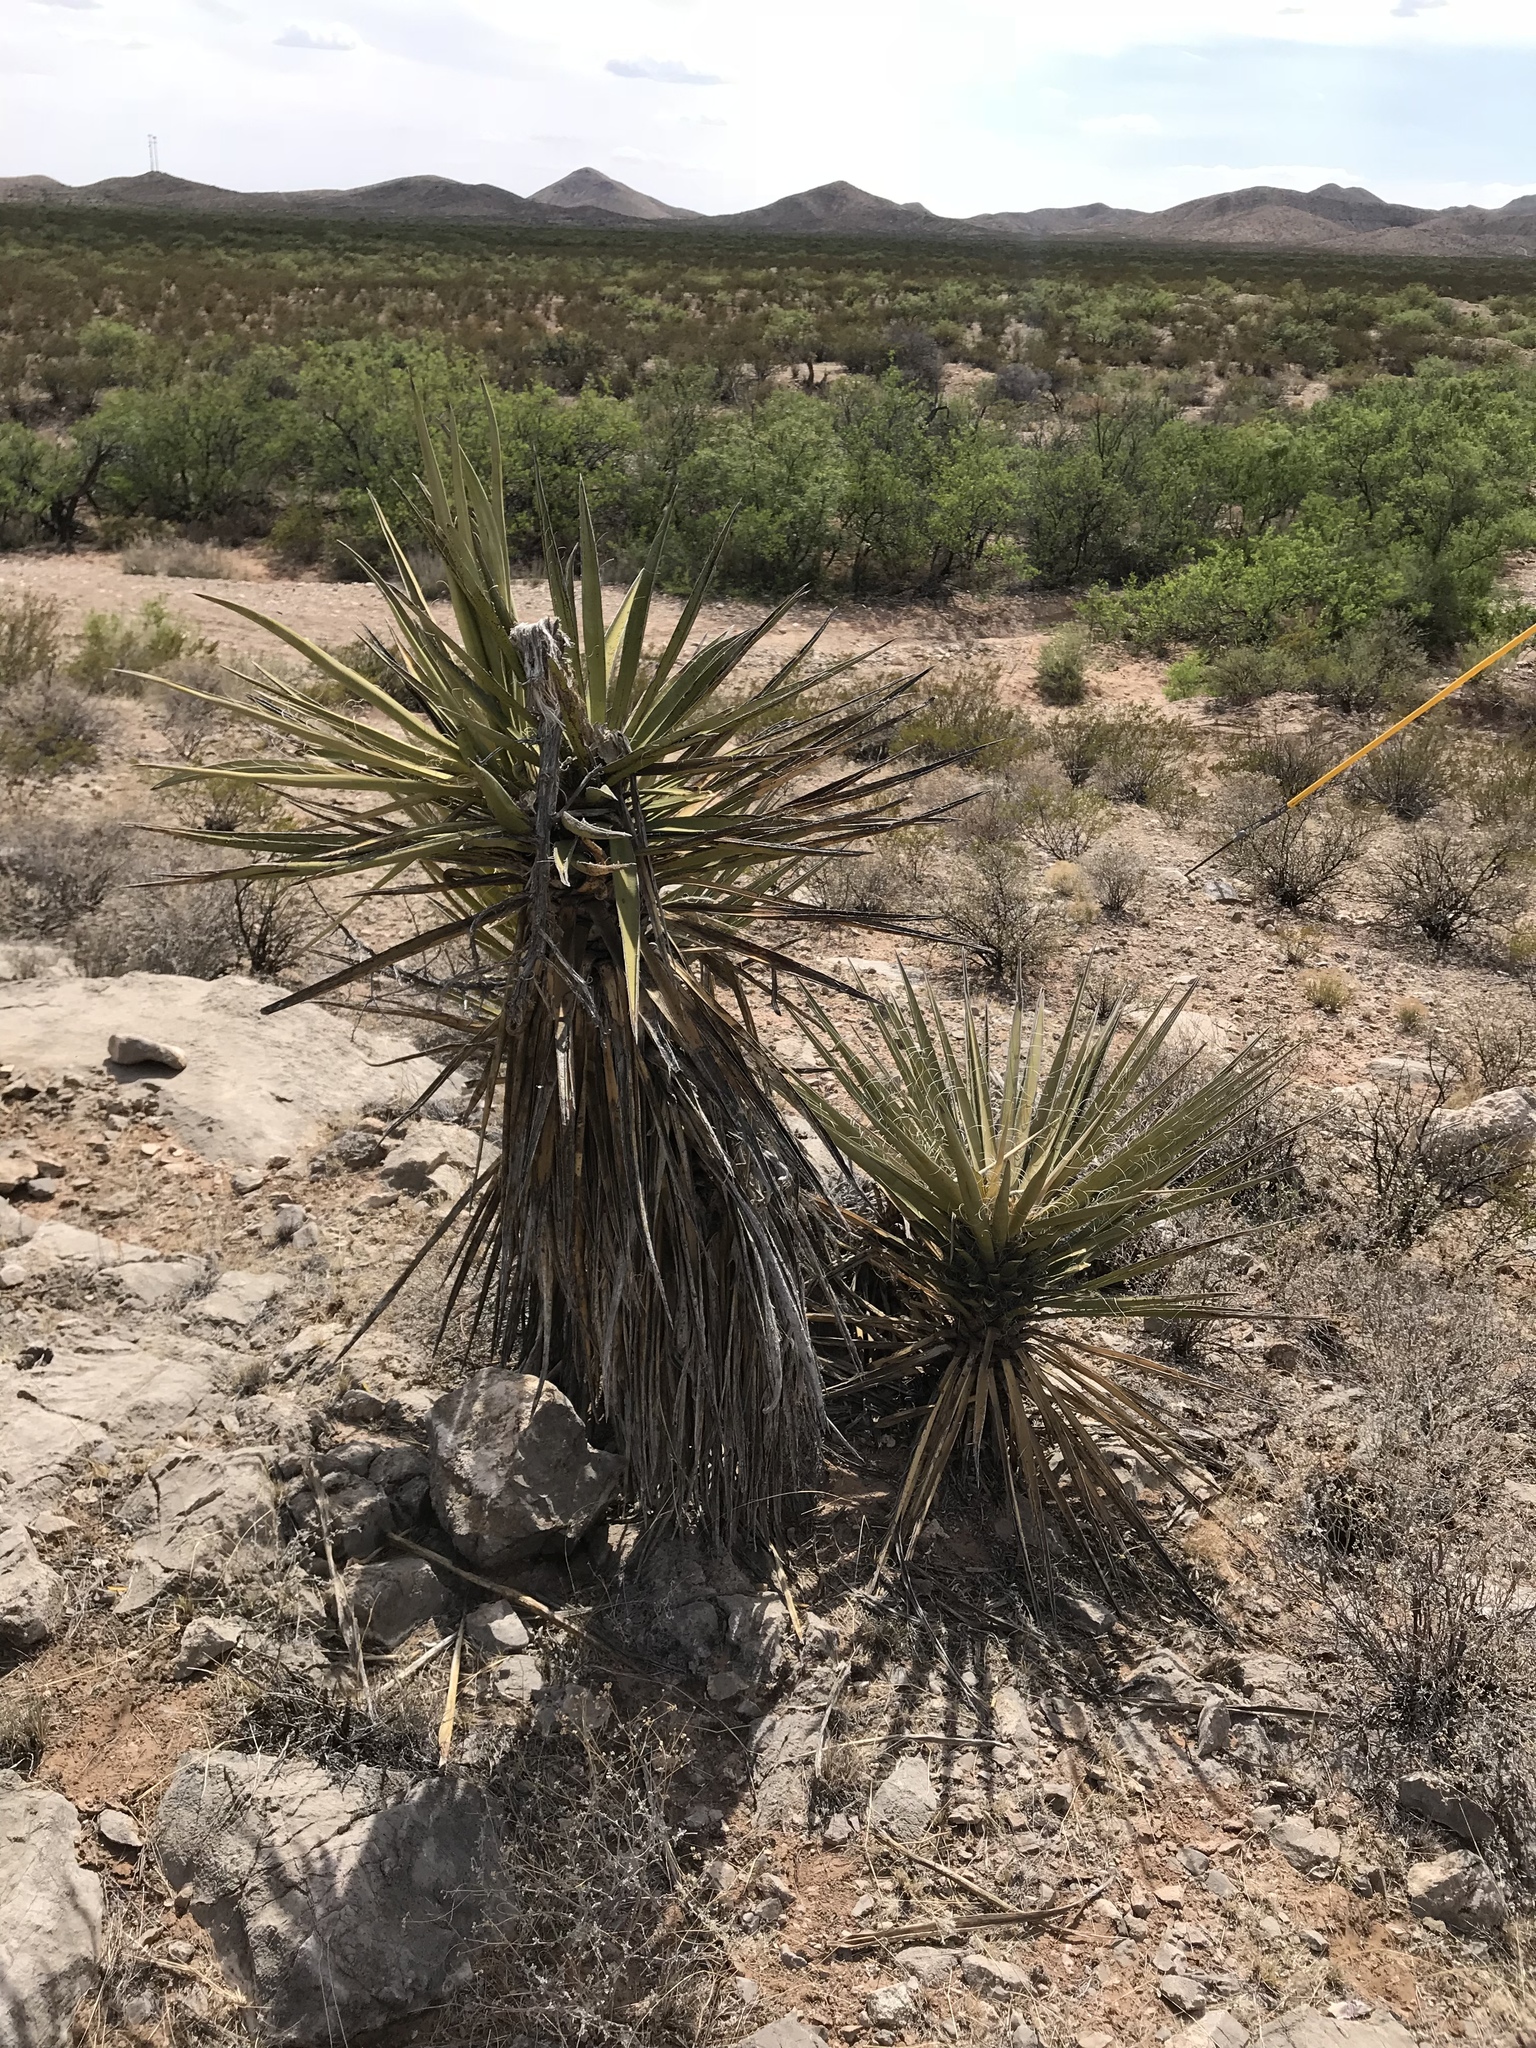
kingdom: Plantae
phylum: Tracheophyta
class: Liliopsida
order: Asparagales
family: Asparagaceae
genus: Yucca
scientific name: Yucca treculiana
